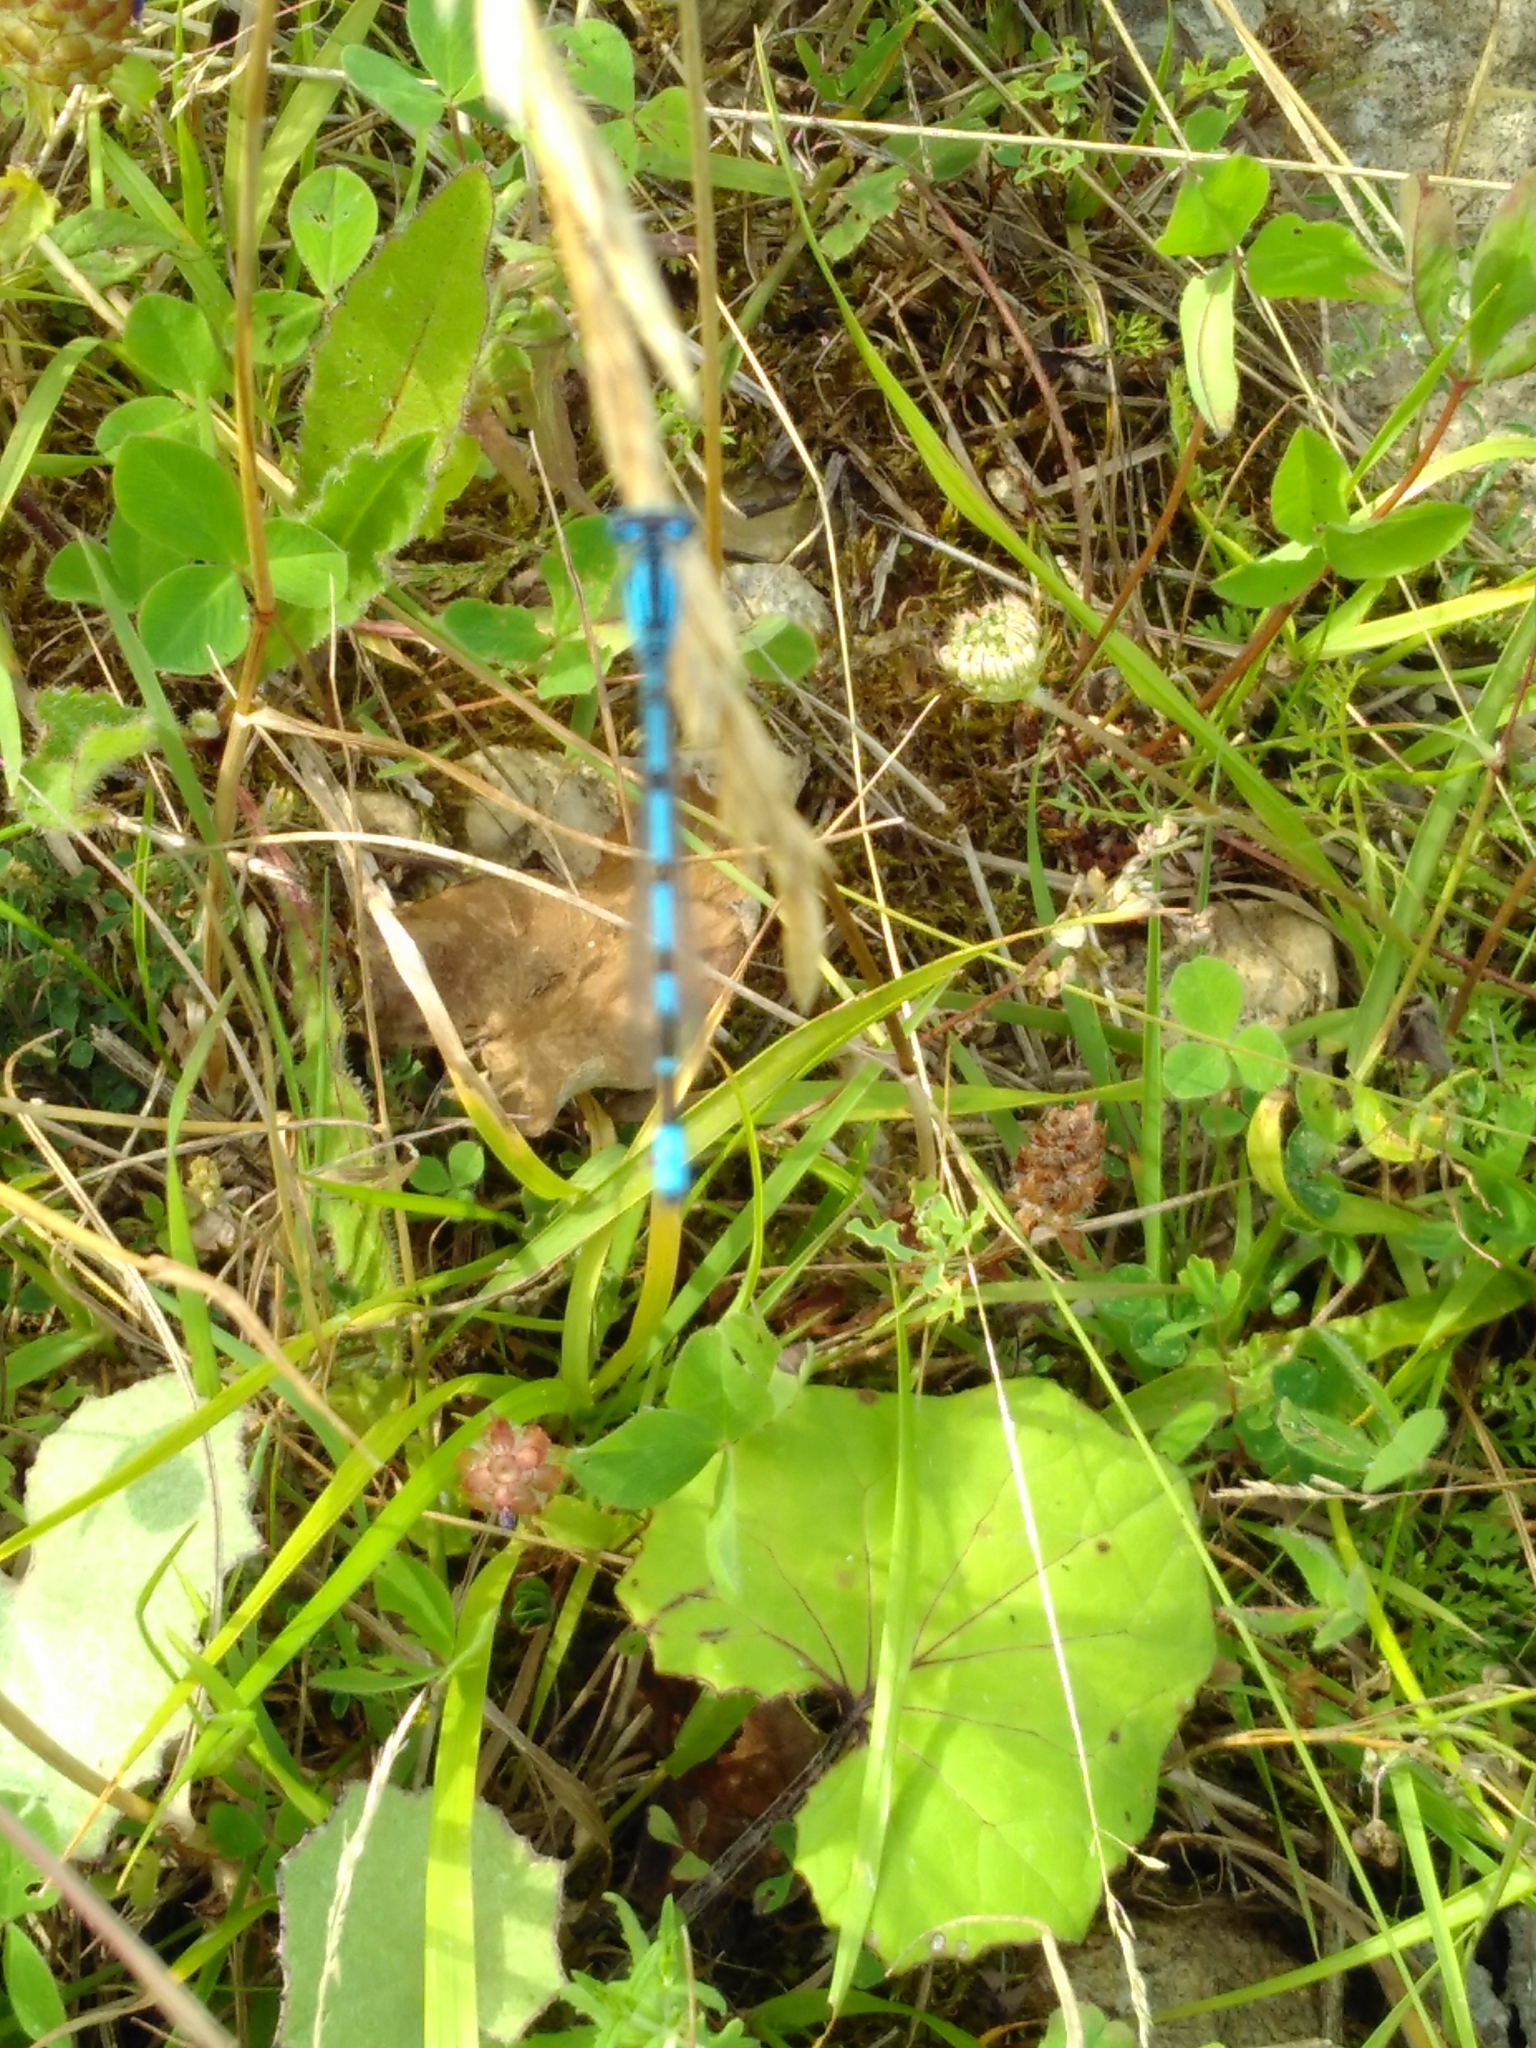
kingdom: Animalia
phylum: Arthropoda
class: Insecta
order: Odonata
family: Coenagrionidae
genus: Enallagma
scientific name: Enallagma cyathigerum
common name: Common blue damselfly
